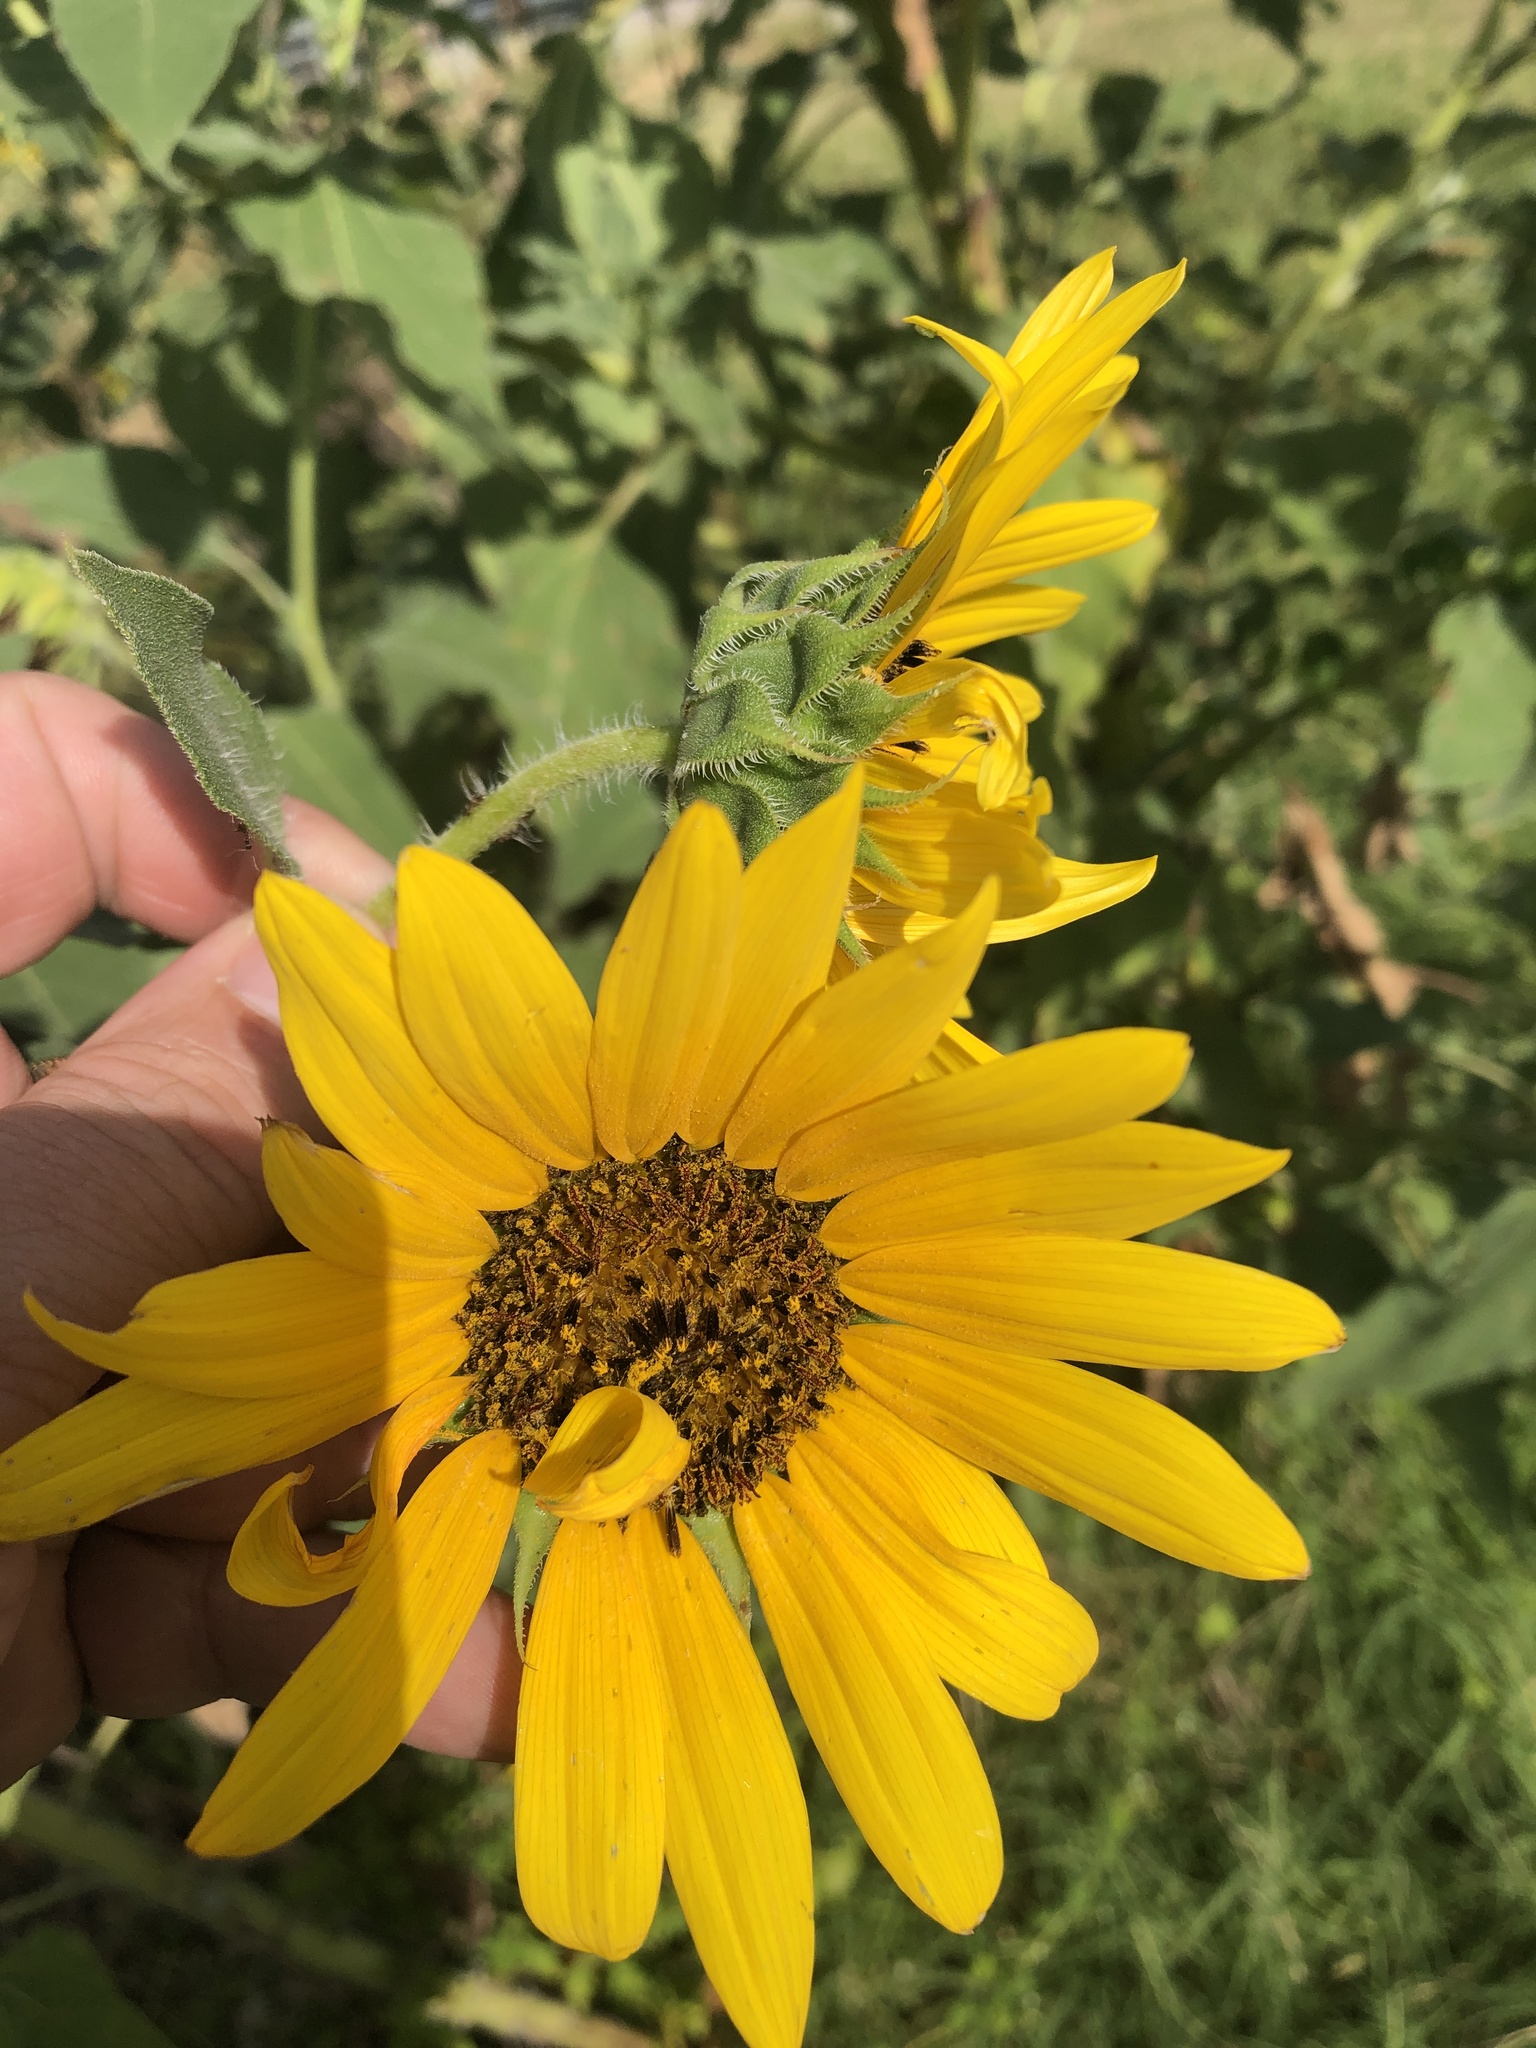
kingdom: Plantae
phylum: Tracheophyta
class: Magnoliopsida
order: Asterales
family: Asteraceae
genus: Helianthus
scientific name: Helianthus annuus
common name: Sunflower
